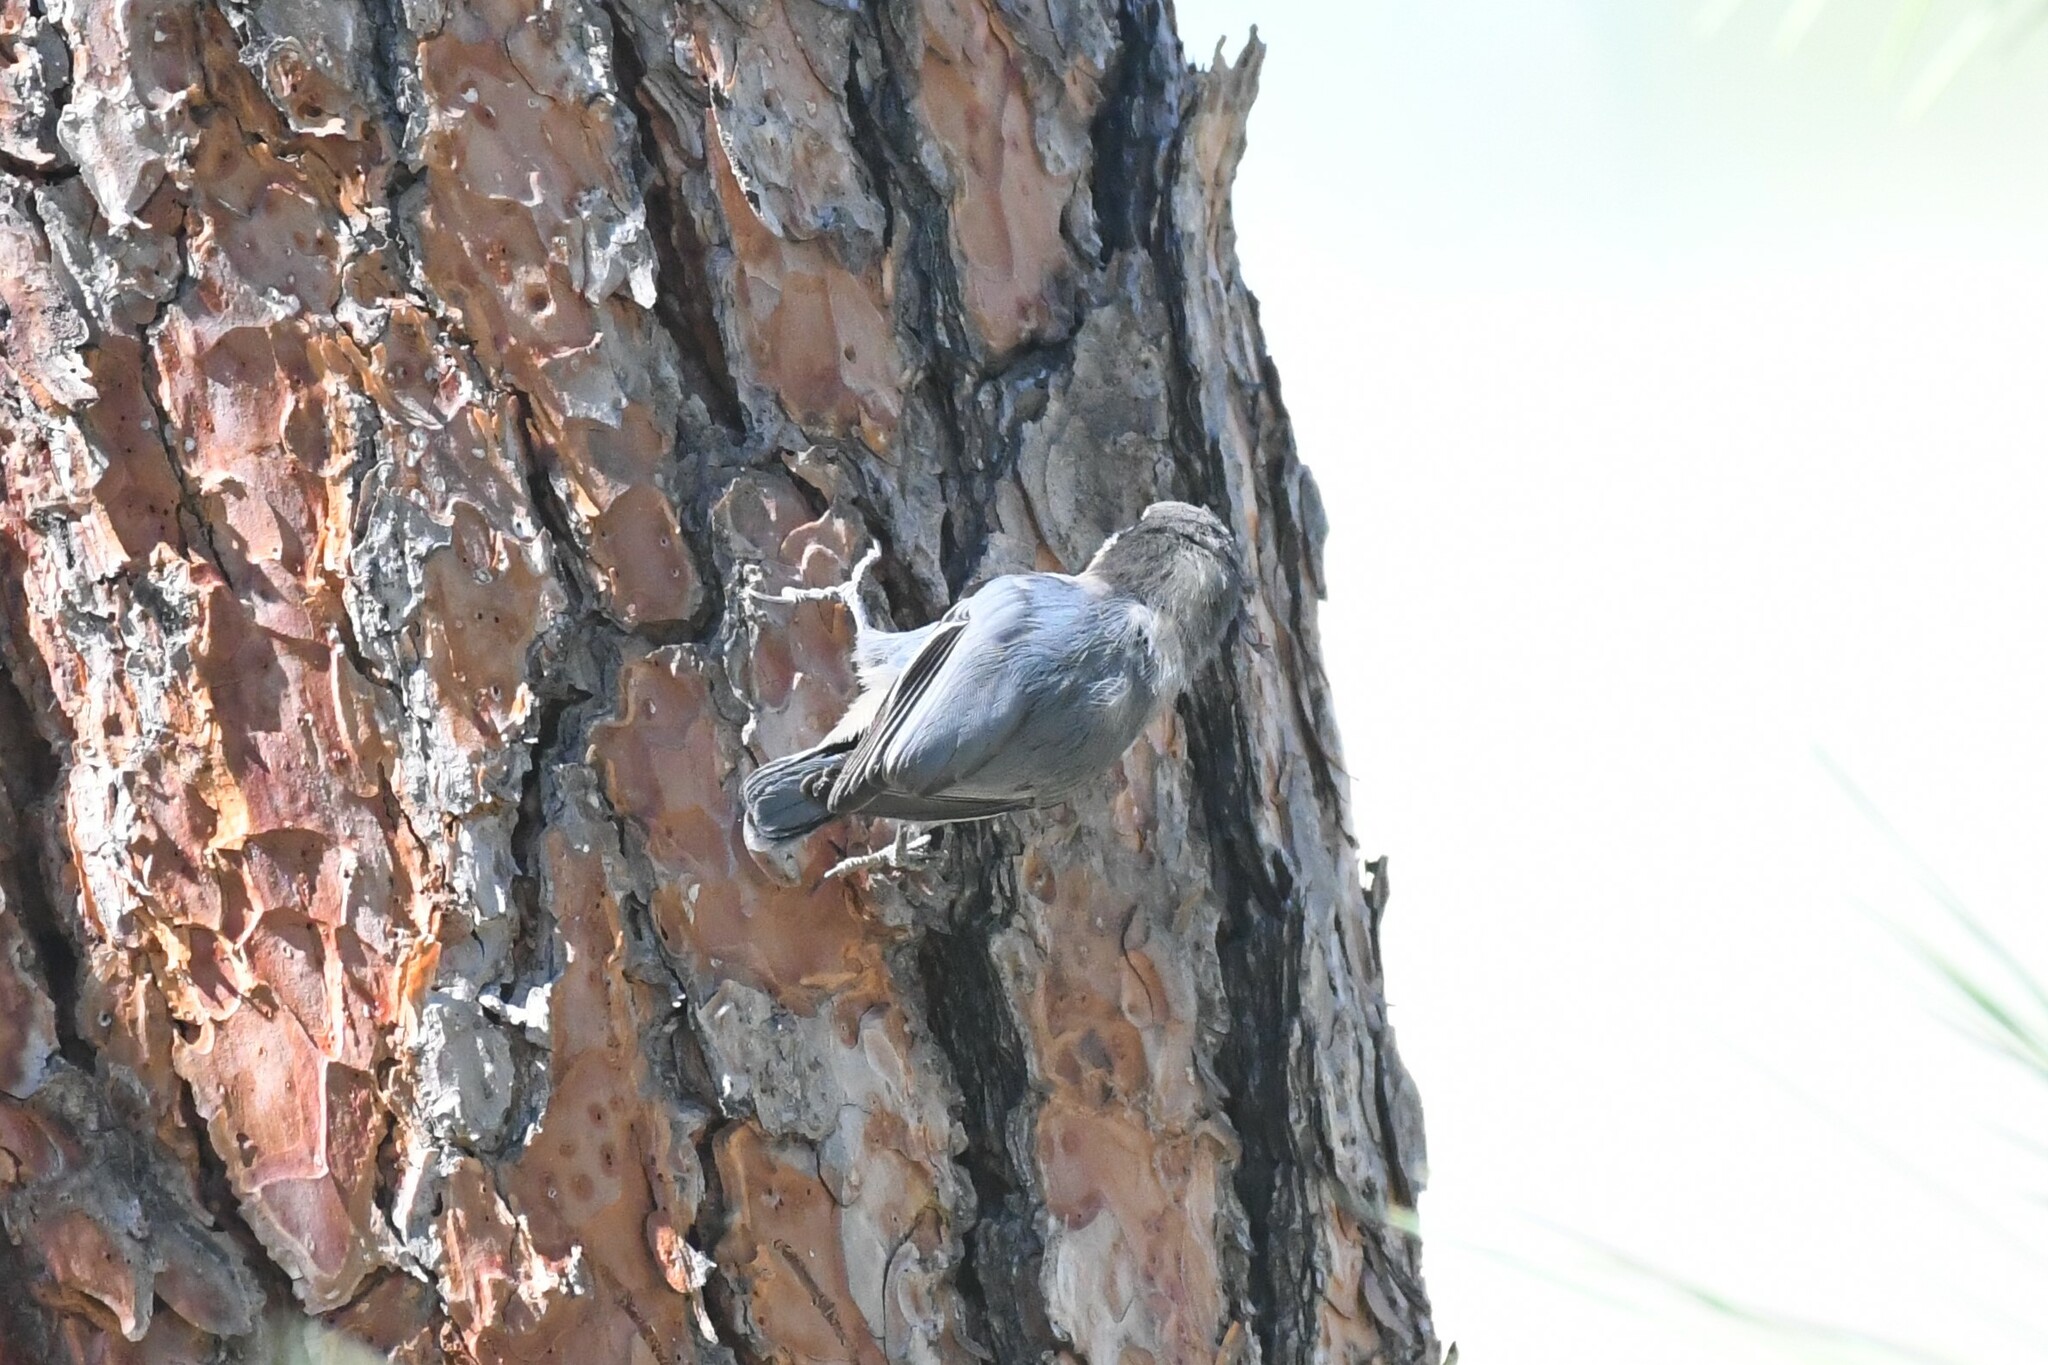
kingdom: Animalia
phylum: Chordata
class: Aves
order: Passeriformes
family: Sittidae
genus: Sitta
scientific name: Sitta pygmaea
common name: Pygmy nuthatch
